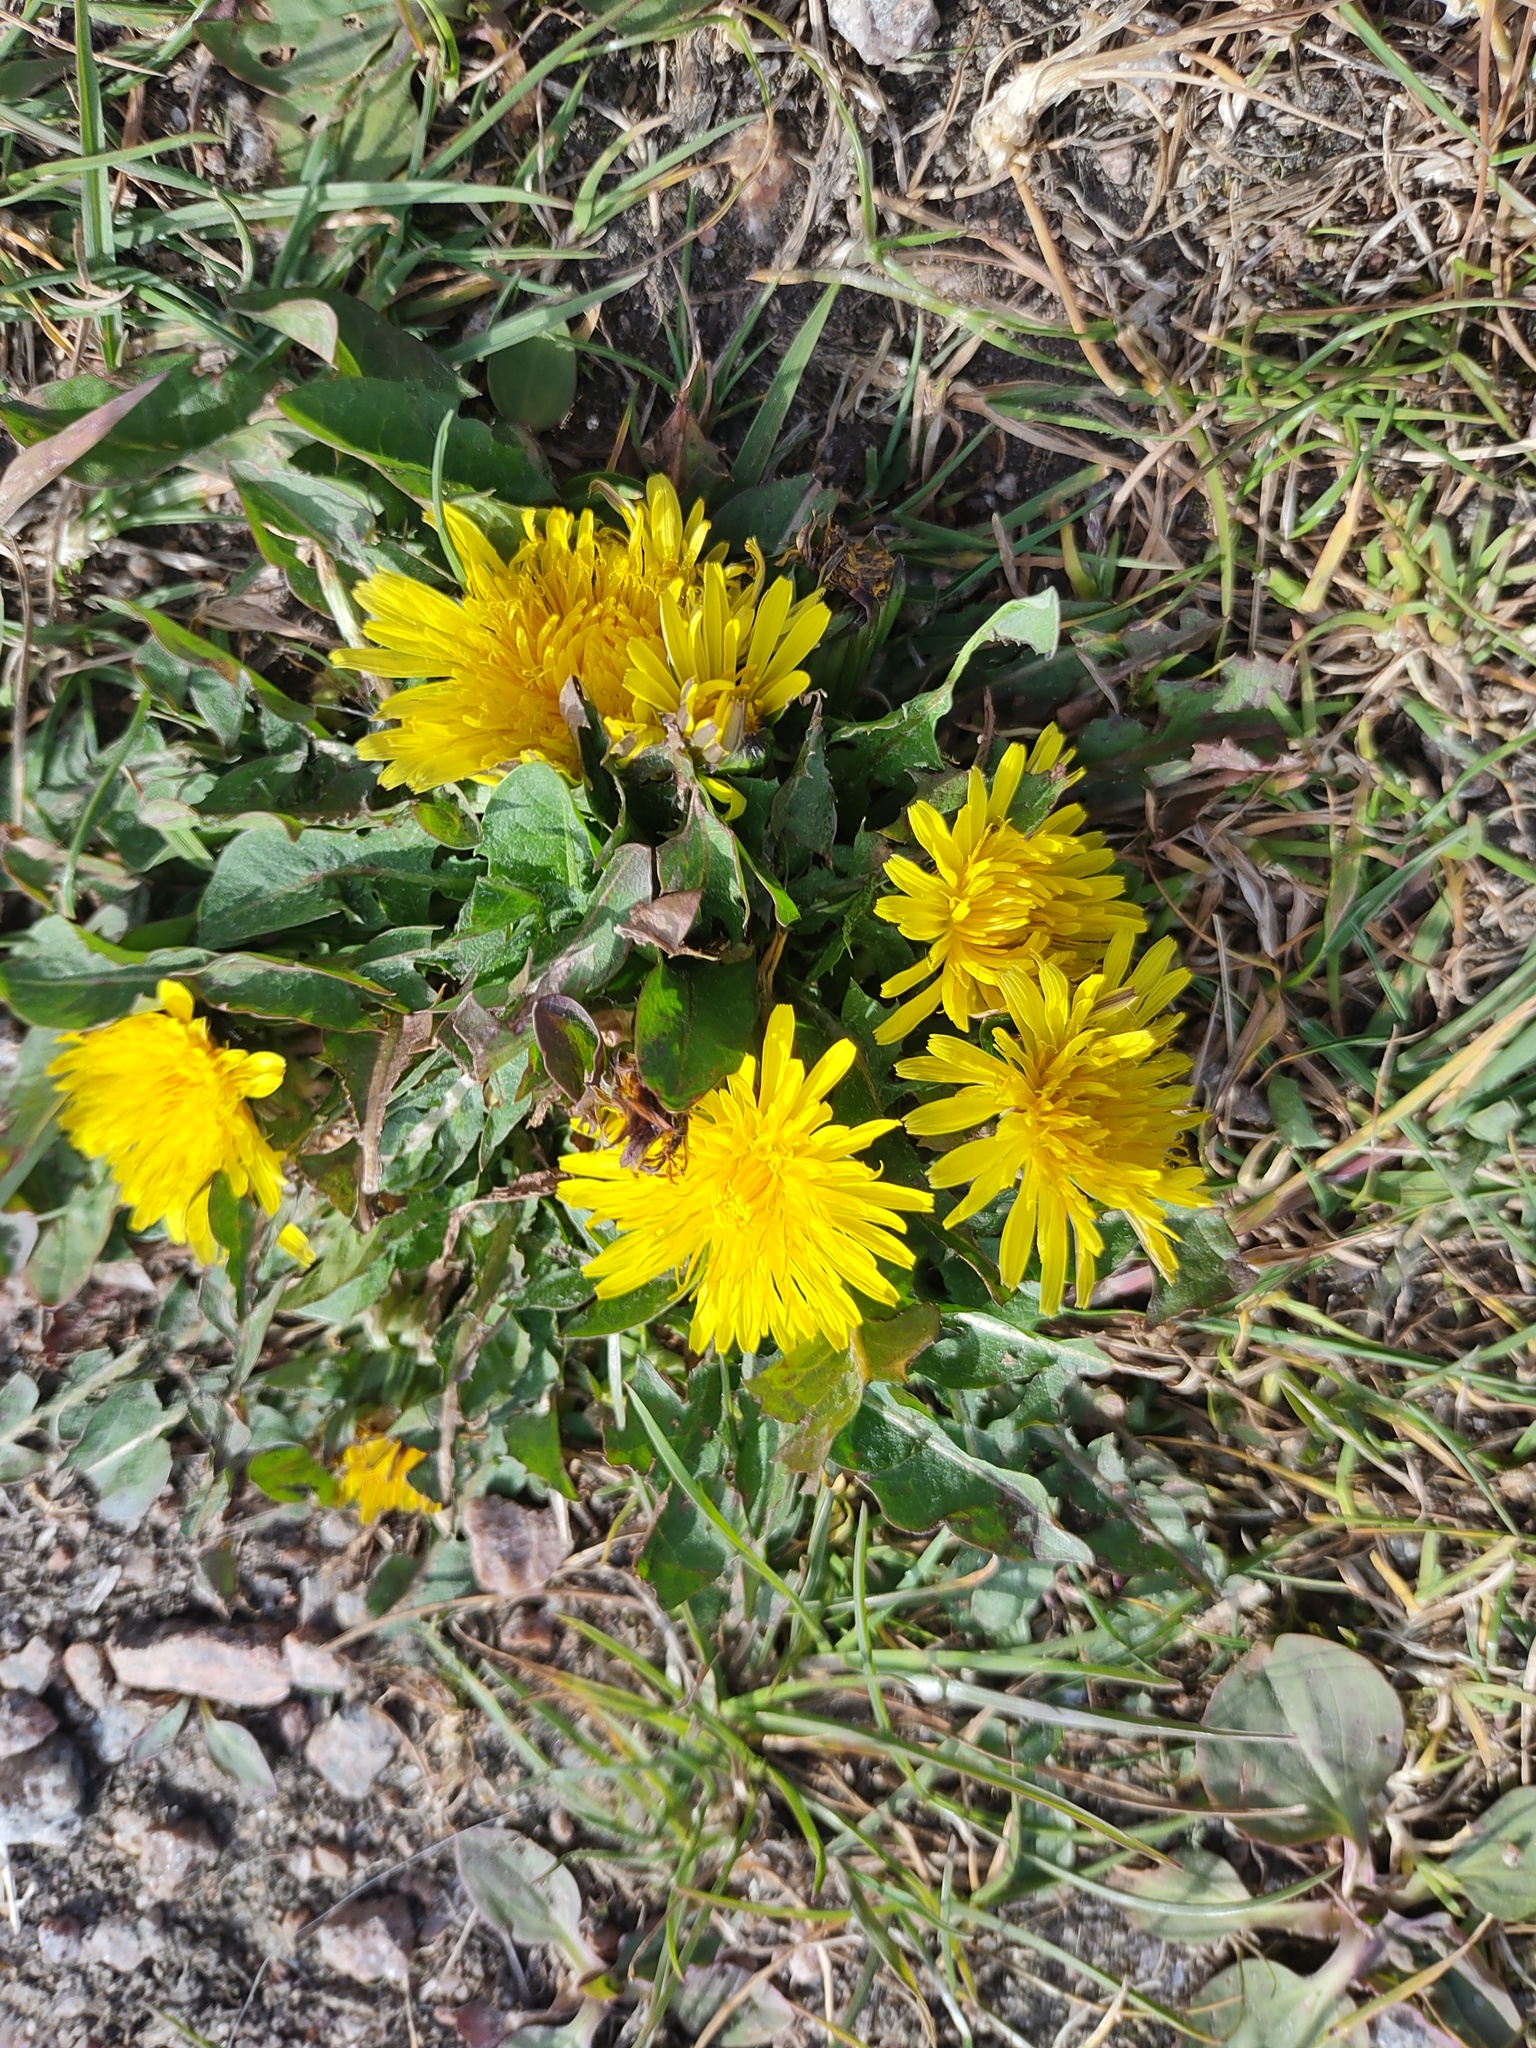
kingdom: Plantae
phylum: Tracheophyta
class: Magnoliopsida
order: Asterales
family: Asteraceae
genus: Taraxacum
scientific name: Taraxacum officinale
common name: Common dandelion
